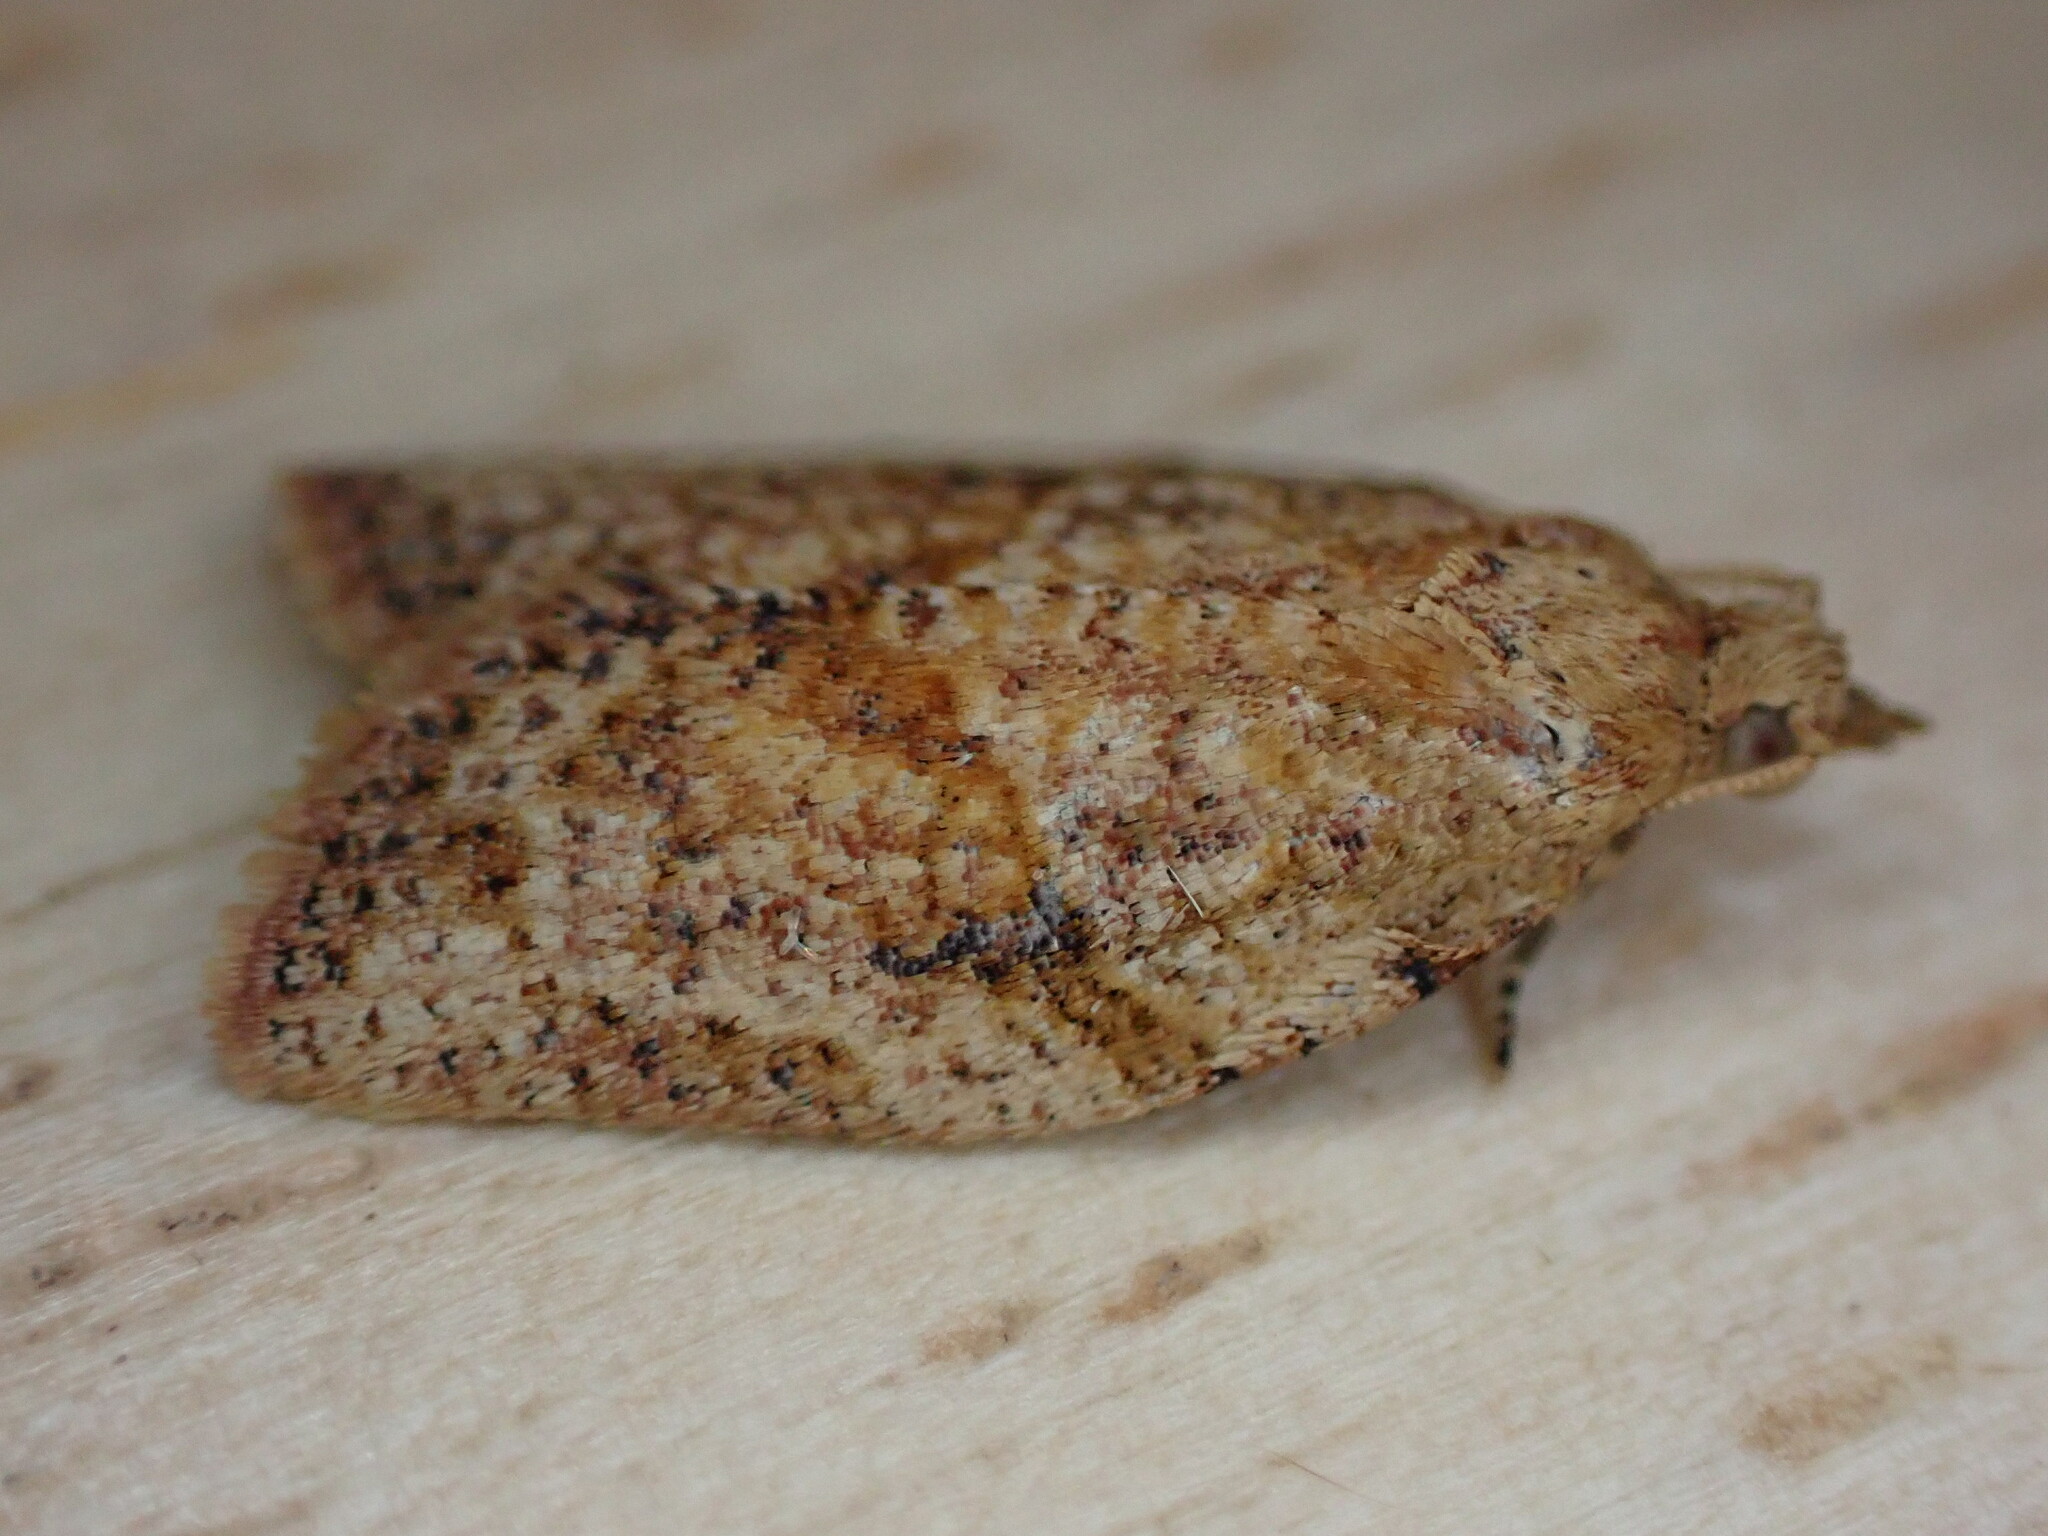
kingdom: Animalia
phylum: Arthropoda
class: Insecta
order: Lepidoptera
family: Tortricidae
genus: Epiphyas
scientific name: Epiphyas postvittana
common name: Light brown apple moth
